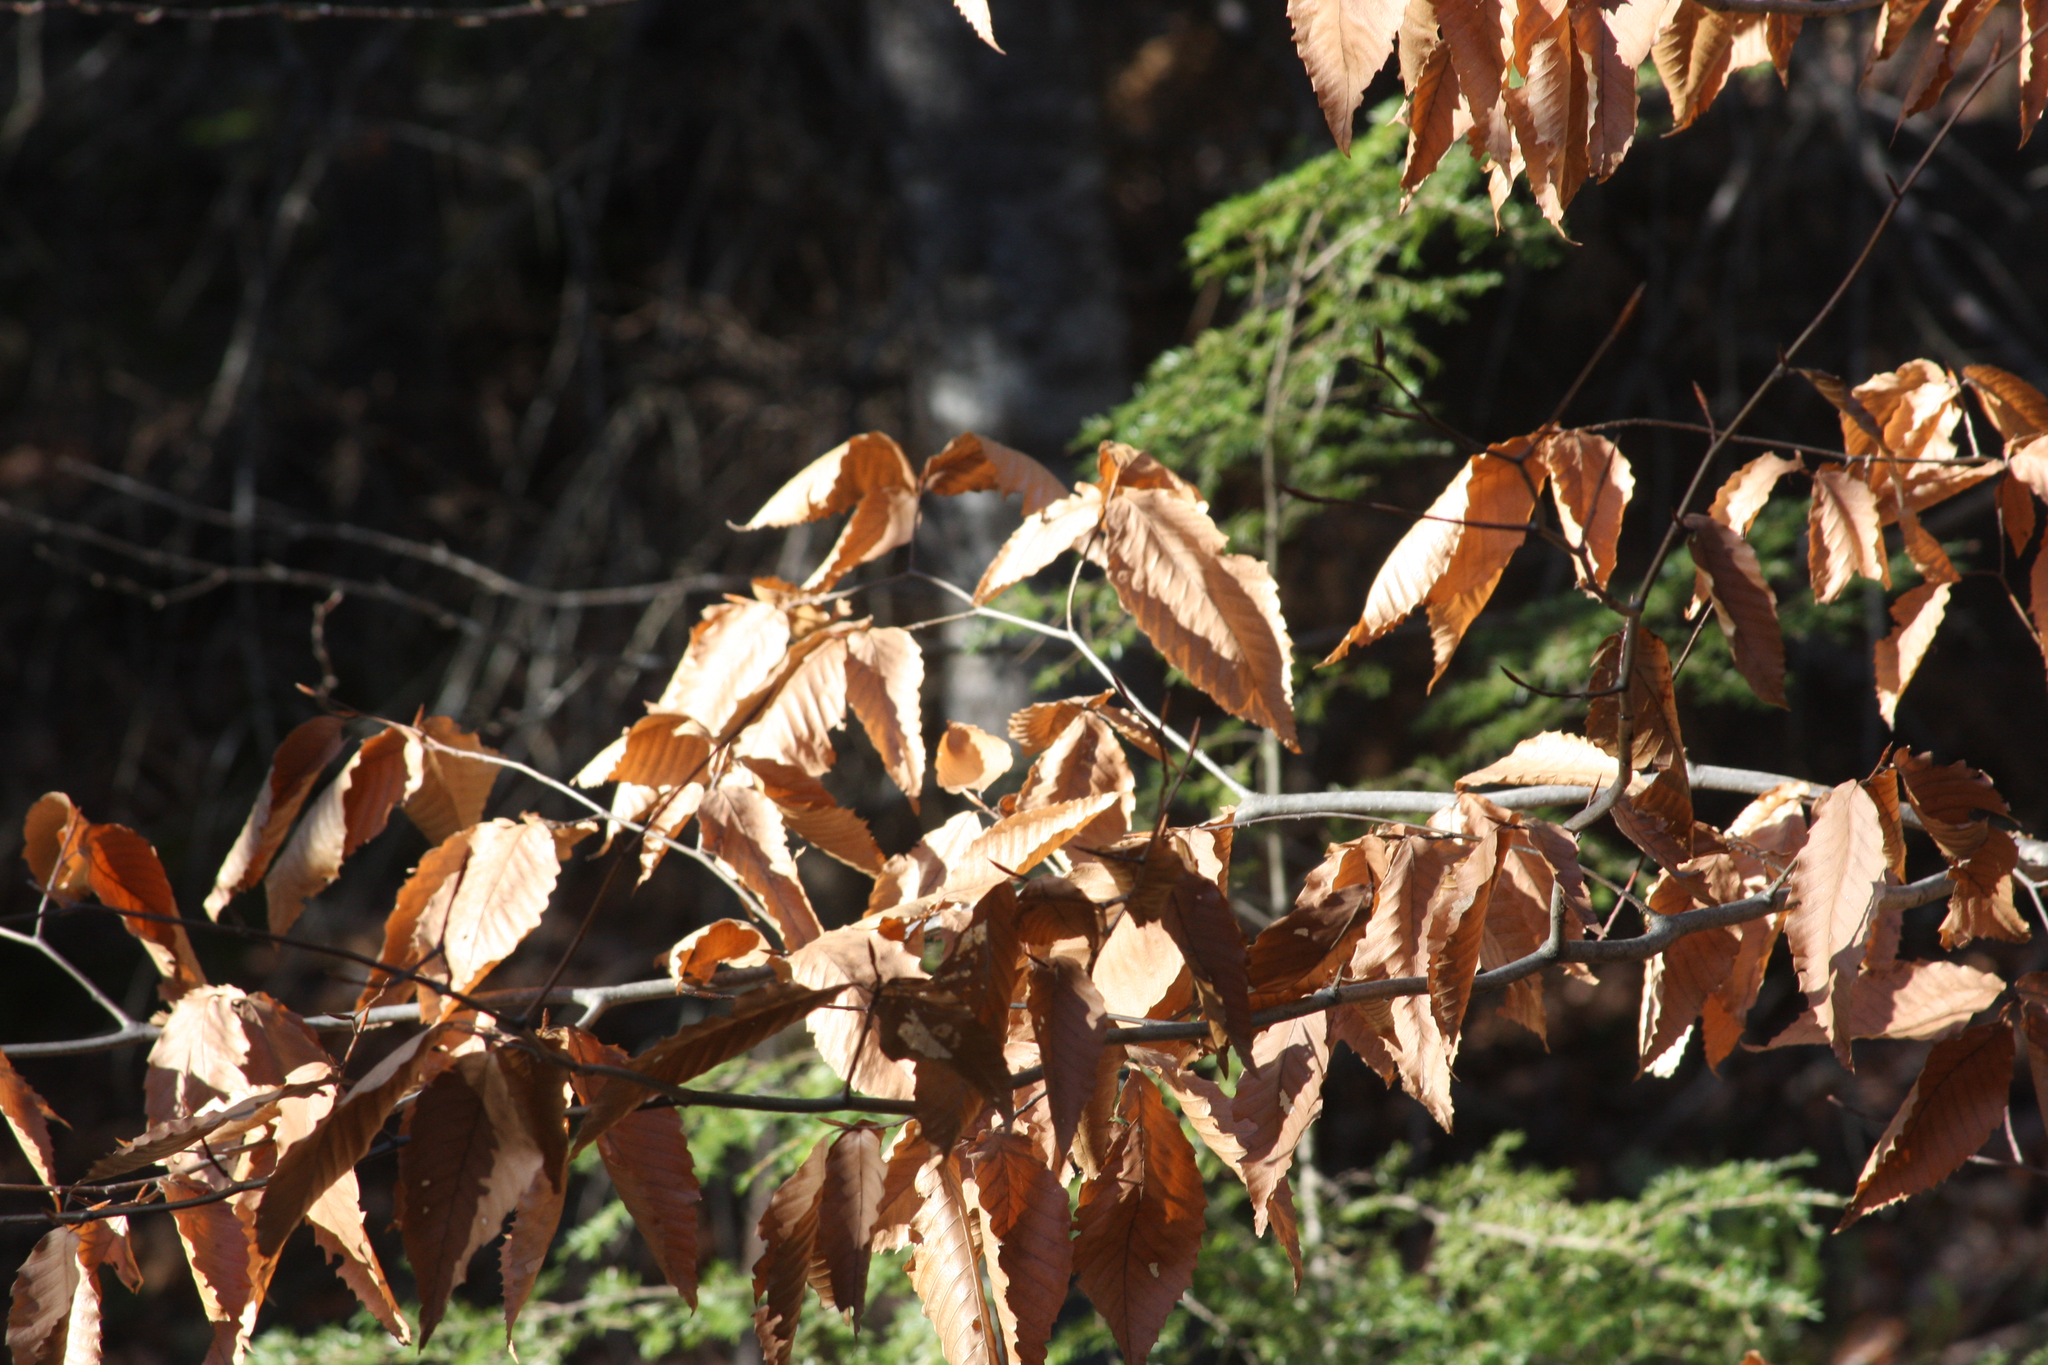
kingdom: Plantae
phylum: Tracheophyta
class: Magnoliopsida
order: Fagales
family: Fagaceae
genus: Fagus
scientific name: Fagus grandifolia
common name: American beech
